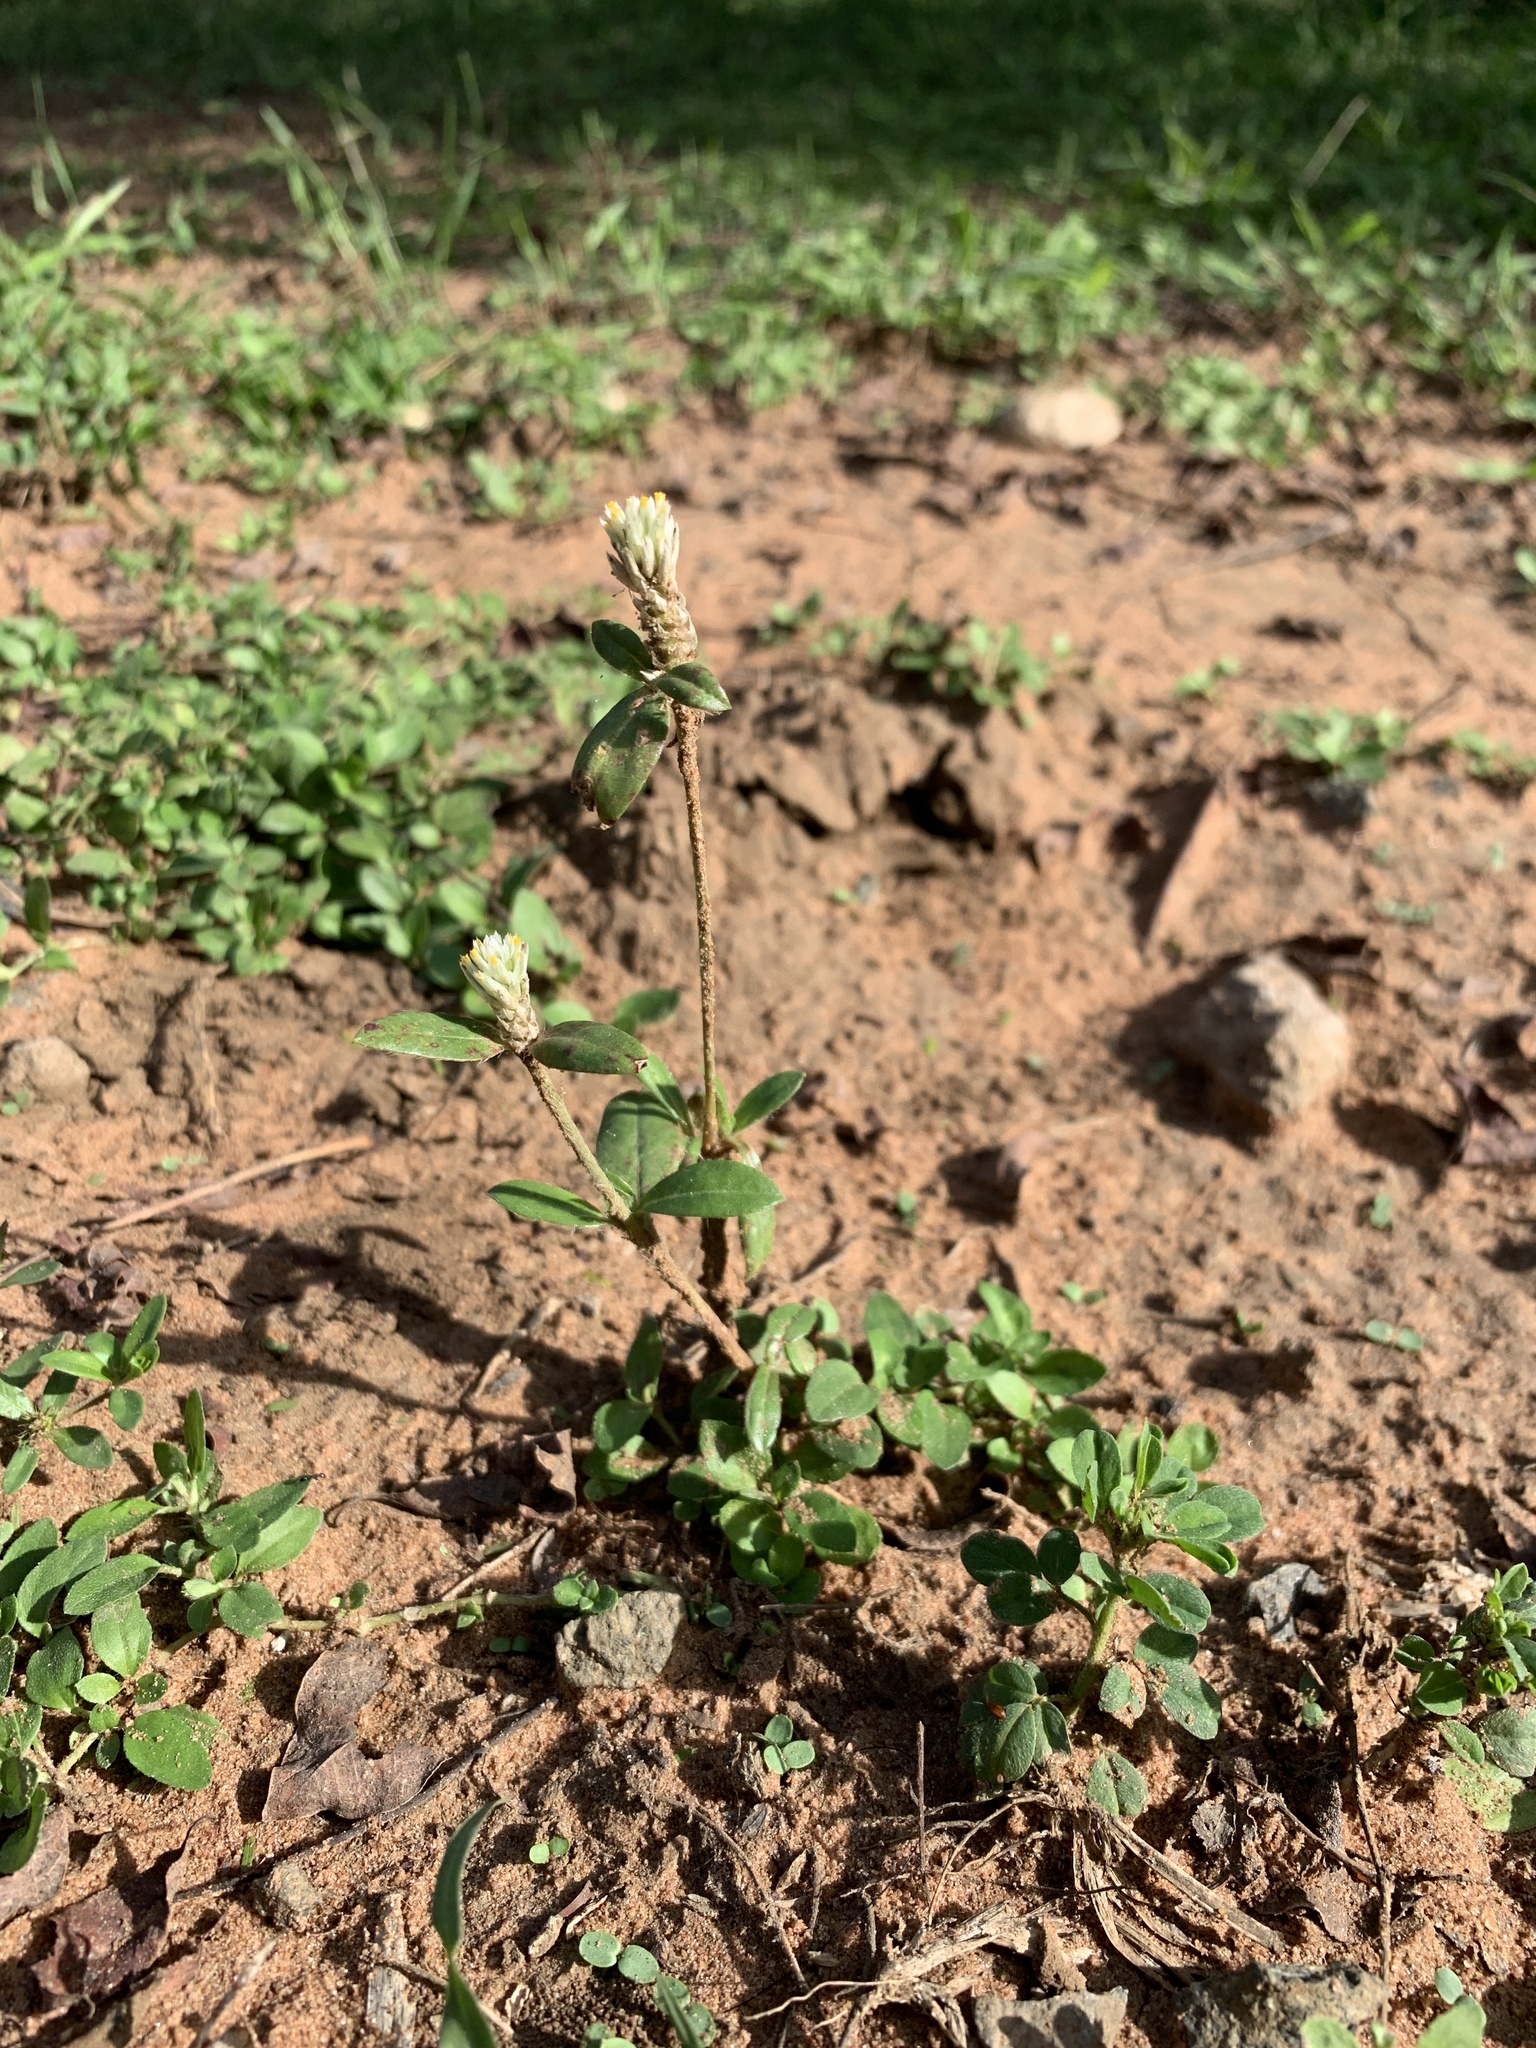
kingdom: Plantae
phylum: Tracheophyta
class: Magnoliopsida
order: Caryophyllales
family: Amaranthaceae
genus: Gomphrena
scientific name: Gomphrena celosioides
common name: Gomphrena-weed
